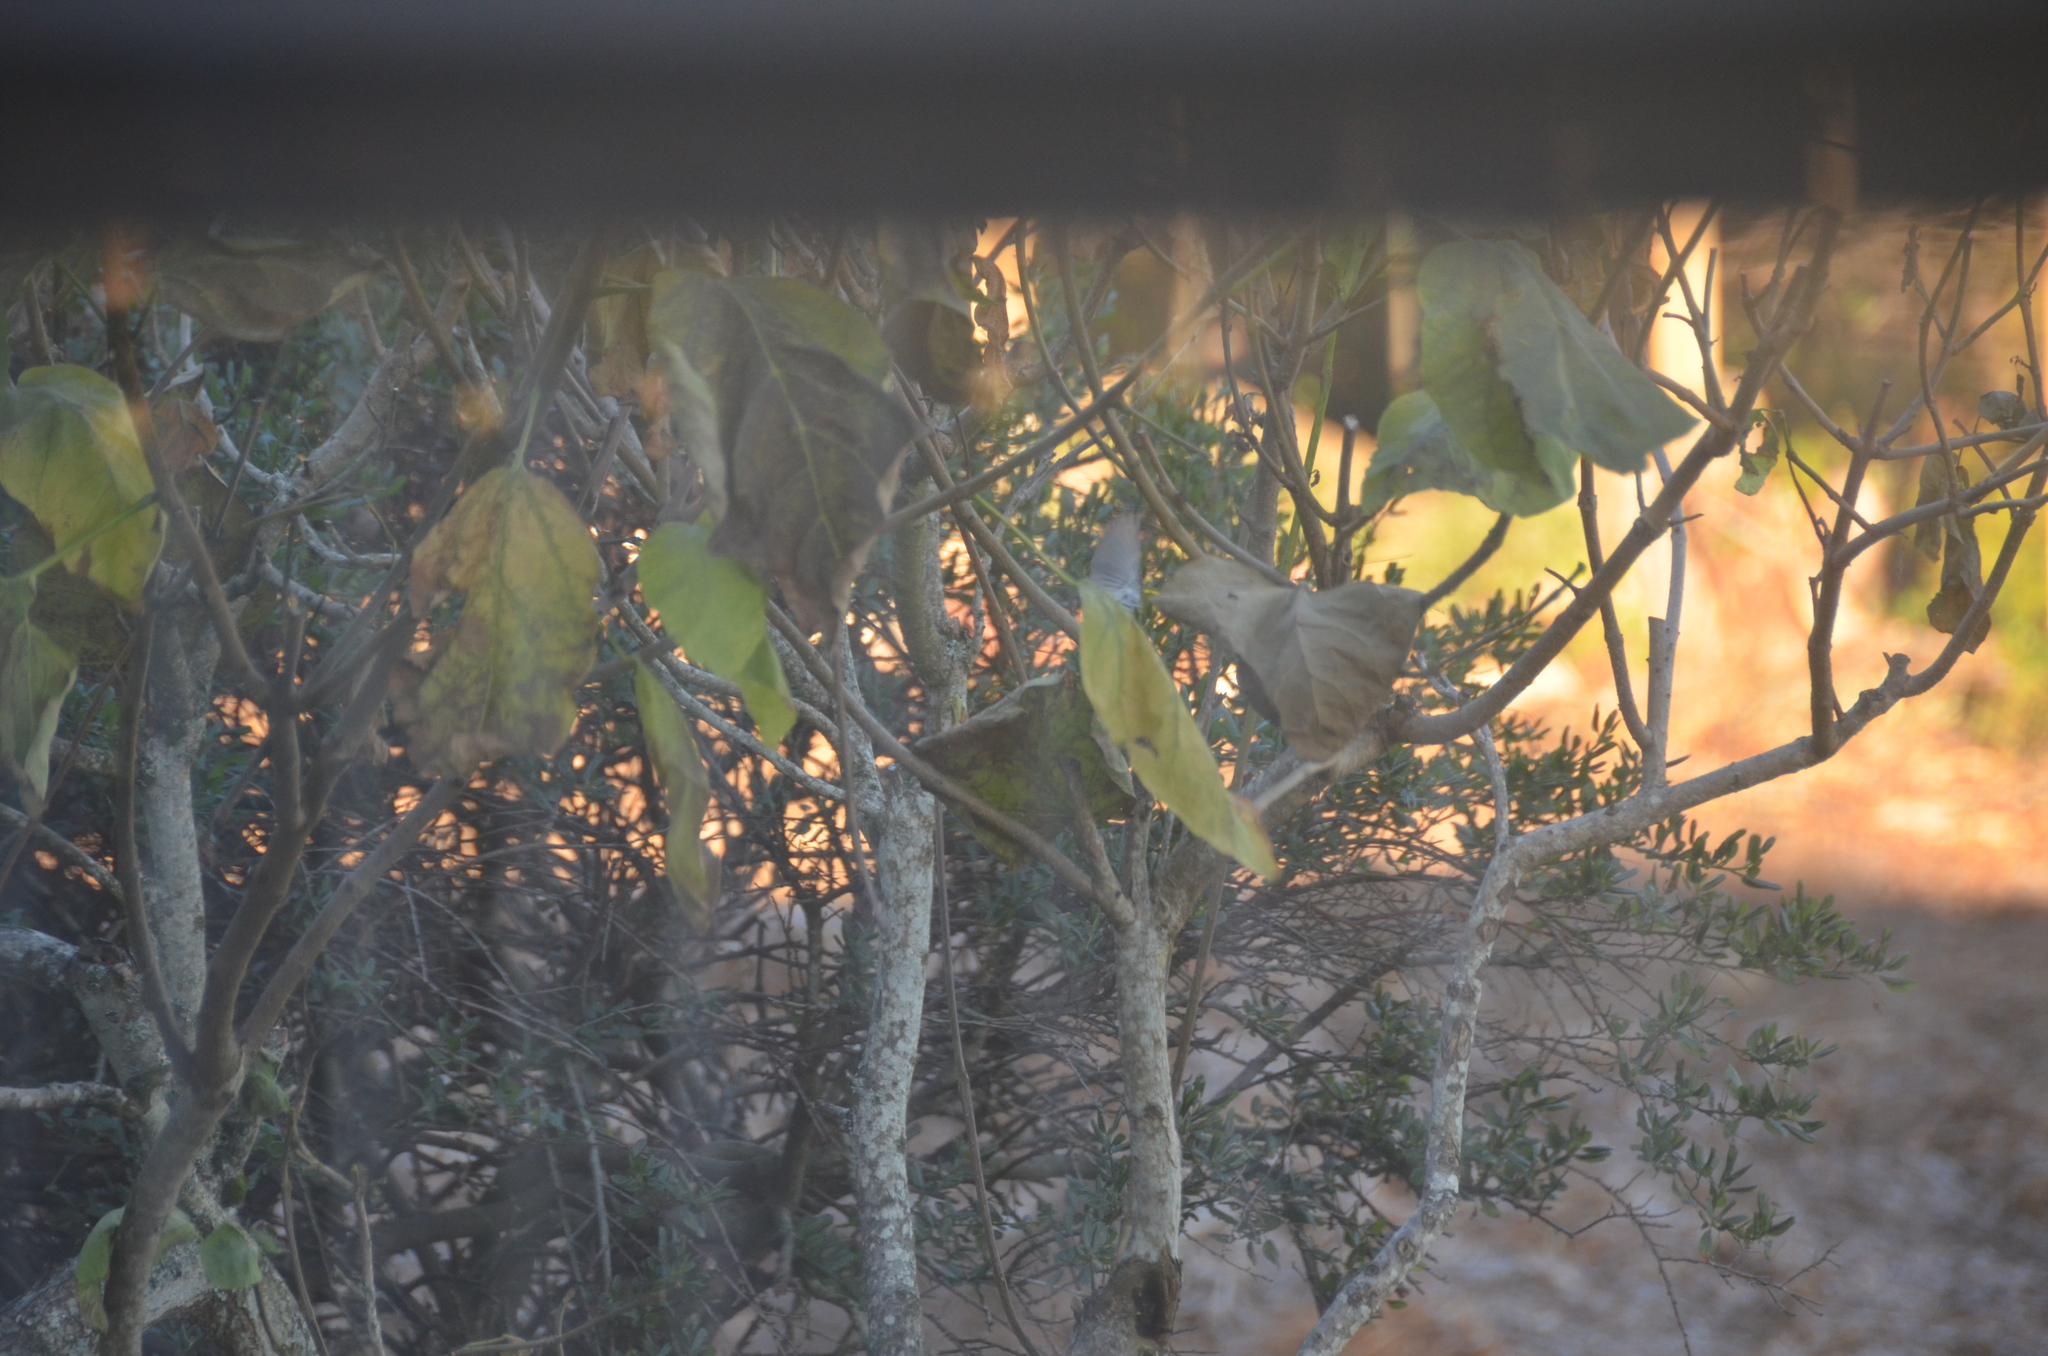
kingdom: Animalia
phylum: Chordata
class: Aves
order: Passeriformes
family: Parulidae
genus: Setophaga
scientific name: Setophaga townsendi
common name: Townsend's warbler
